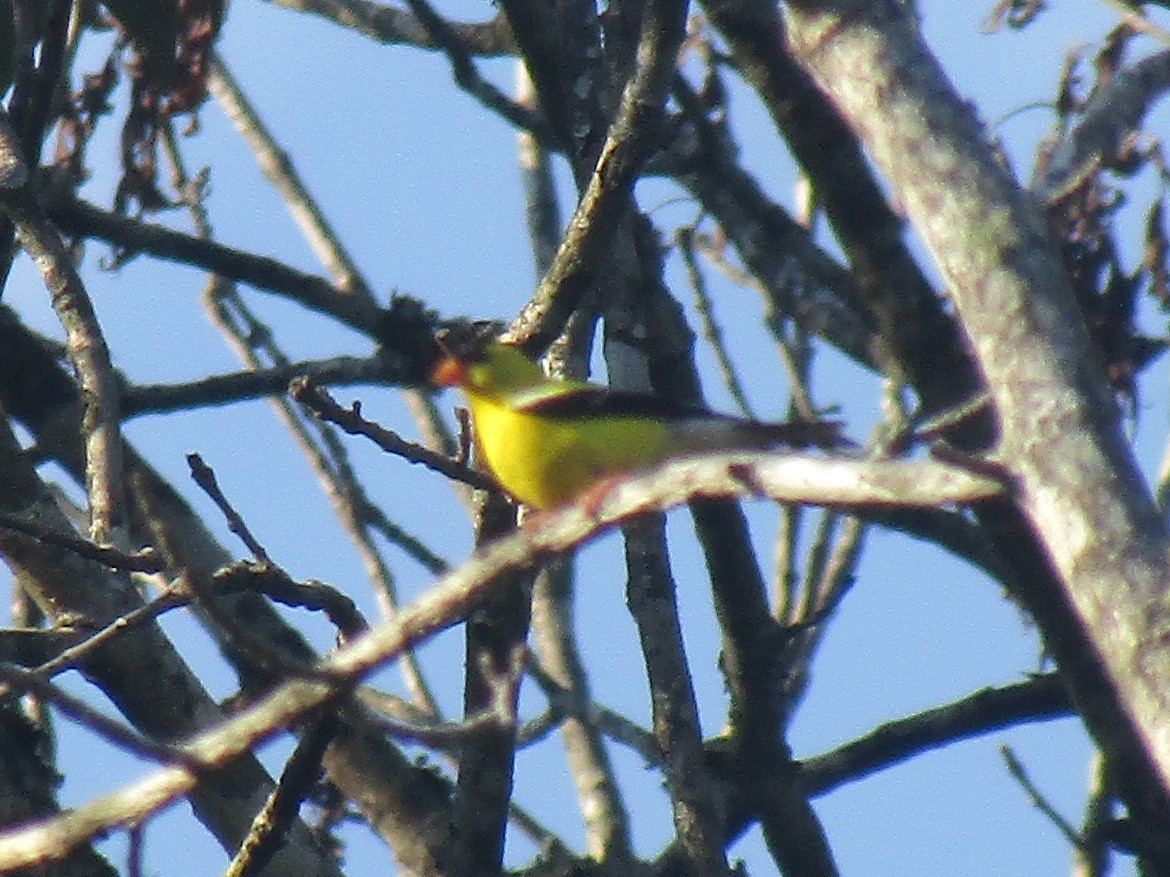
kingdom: Animalia
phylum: Chordata
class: Aves
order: Passeriformes
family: Fringillidae
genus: Spinus
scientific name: Spinus tristis
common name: American goldfinch
